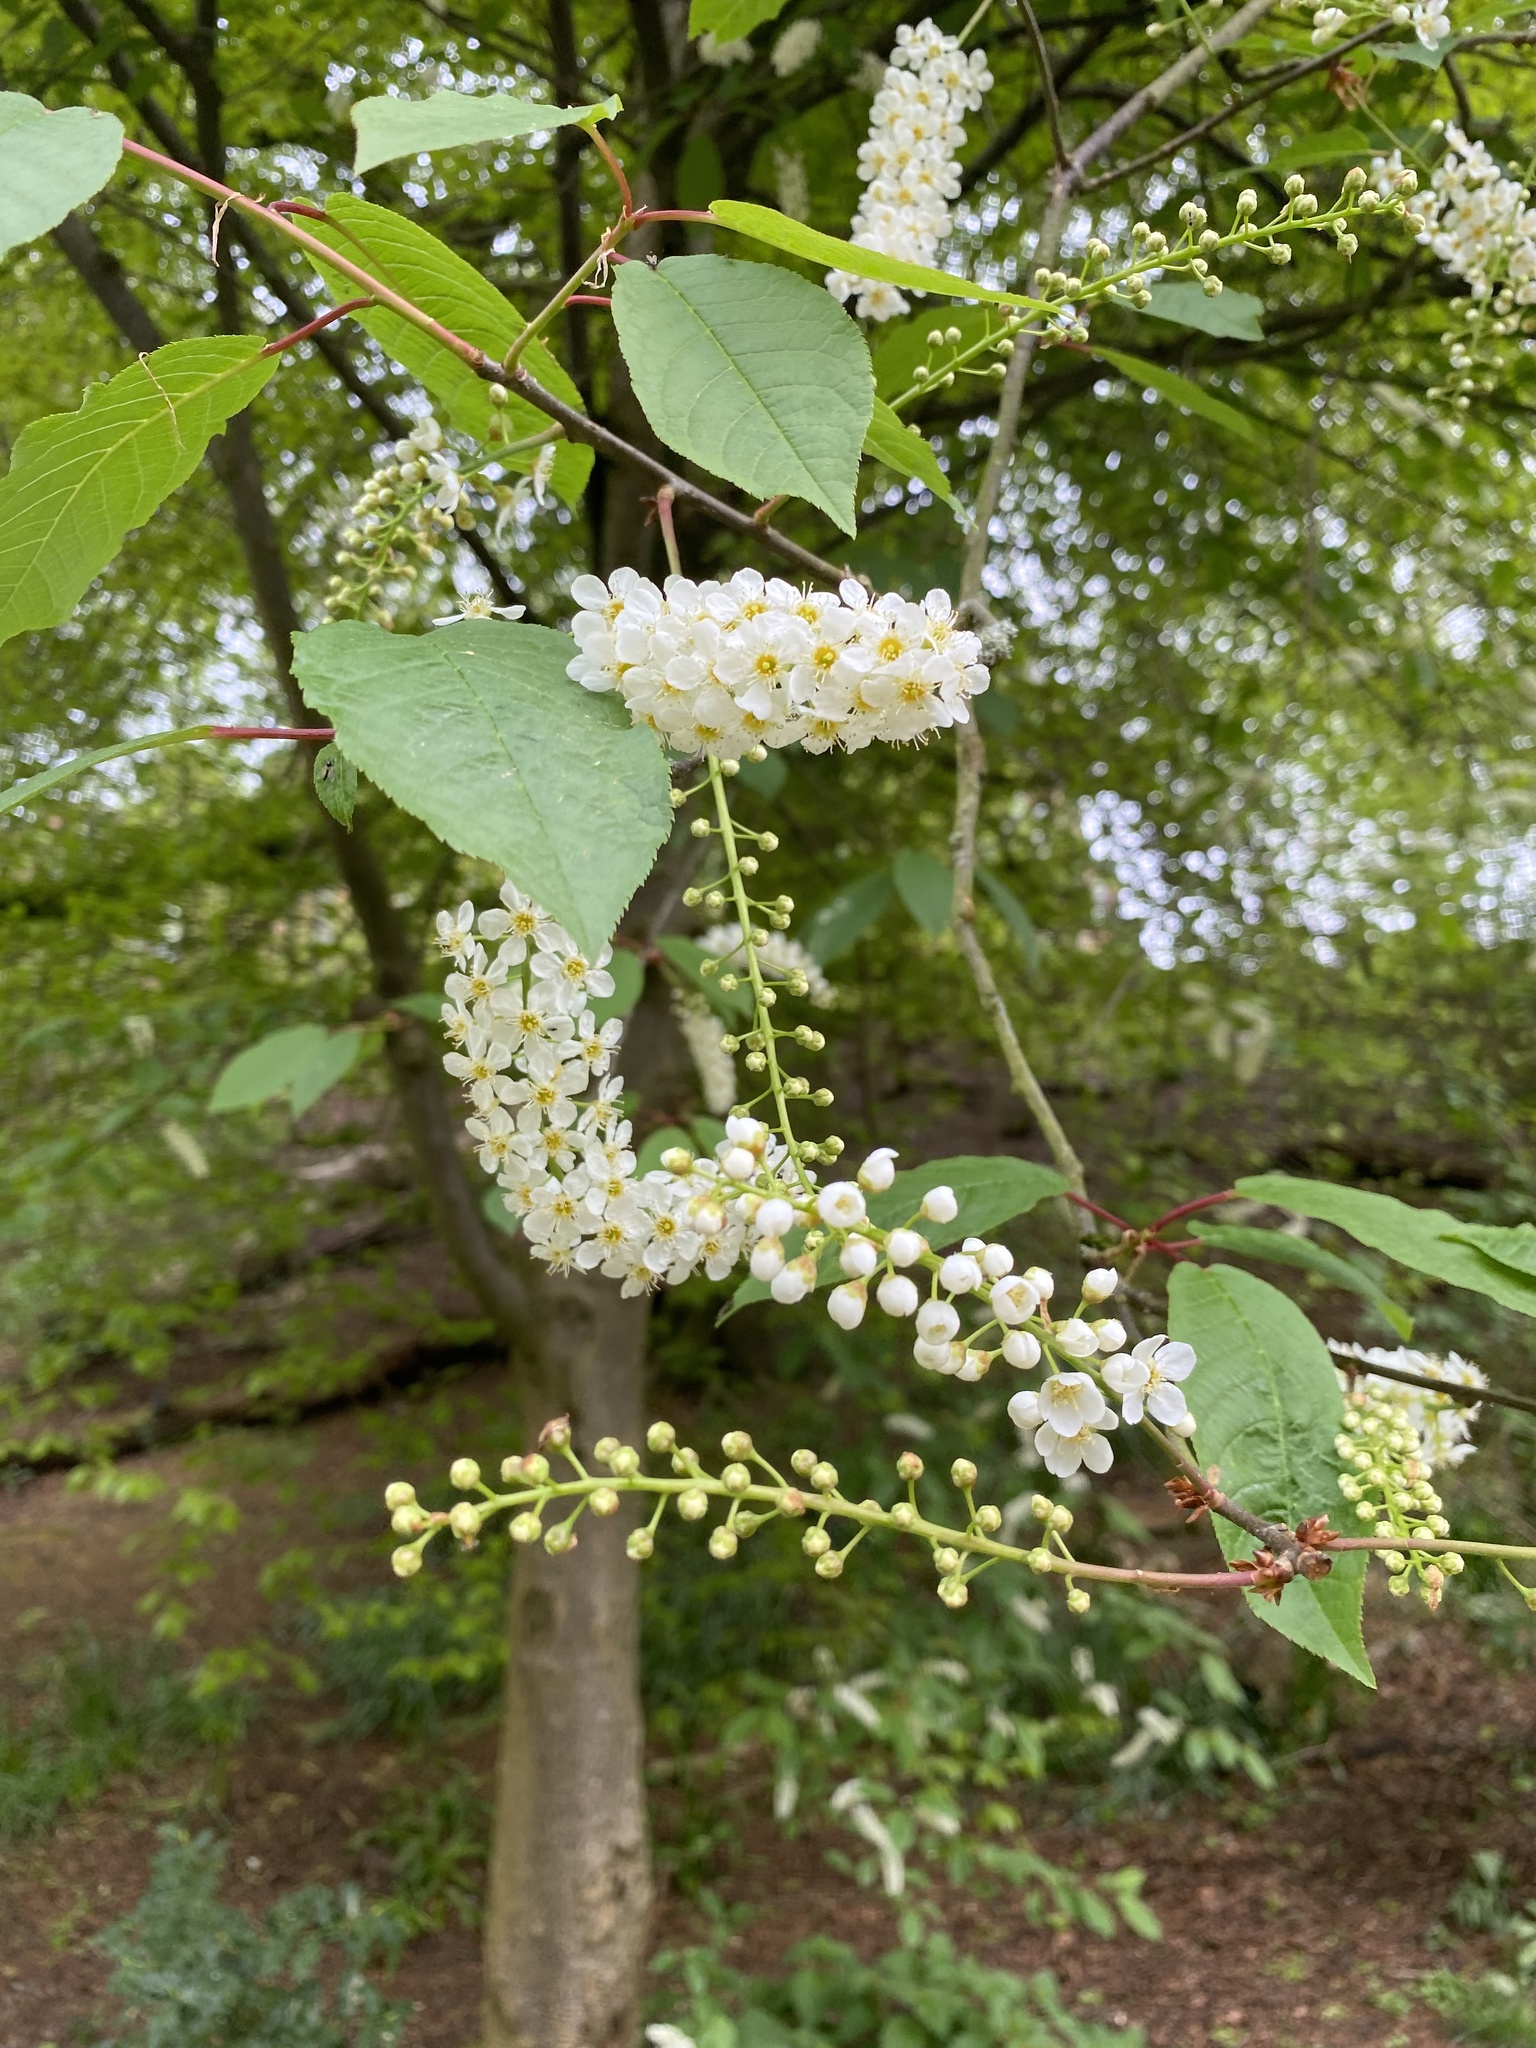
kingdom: Plantae
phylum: Tracheophyta
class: Magnoliopsida
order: Rosales
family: Rosaceae
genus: Prunus
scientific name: Prunus padus
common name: Bird cherry
